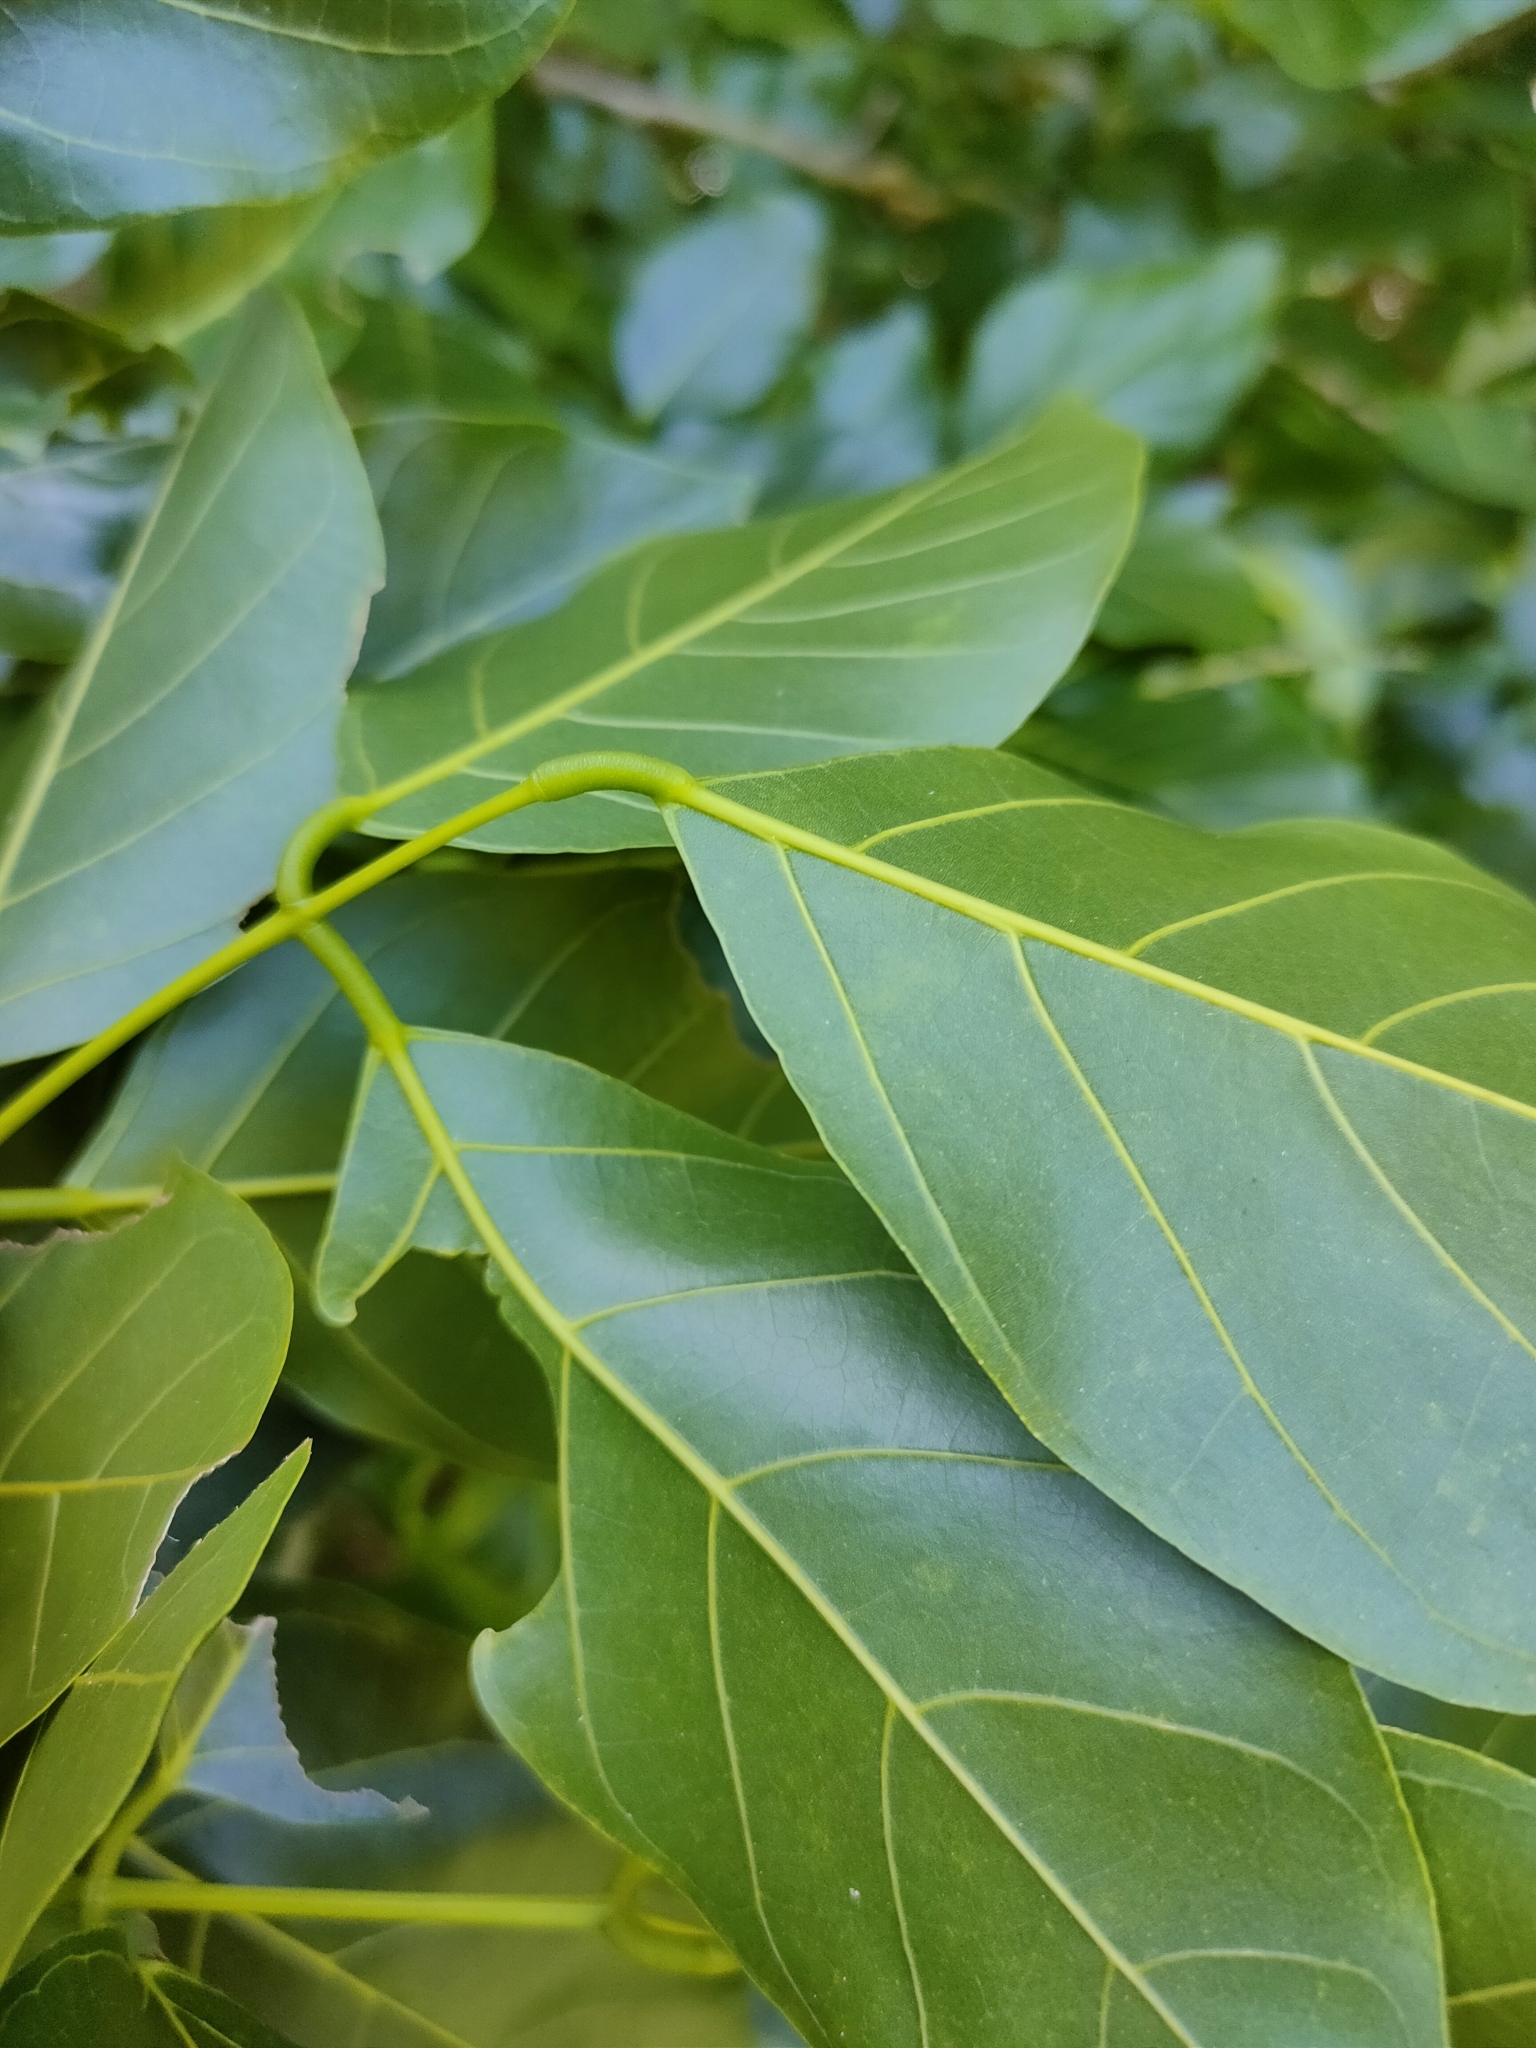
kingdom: Plantae
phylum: Tracheophyta
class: Magnoliopsida
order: Fabales
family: Fabaceae
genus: Pongamia
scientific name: Pongamia pinnata
